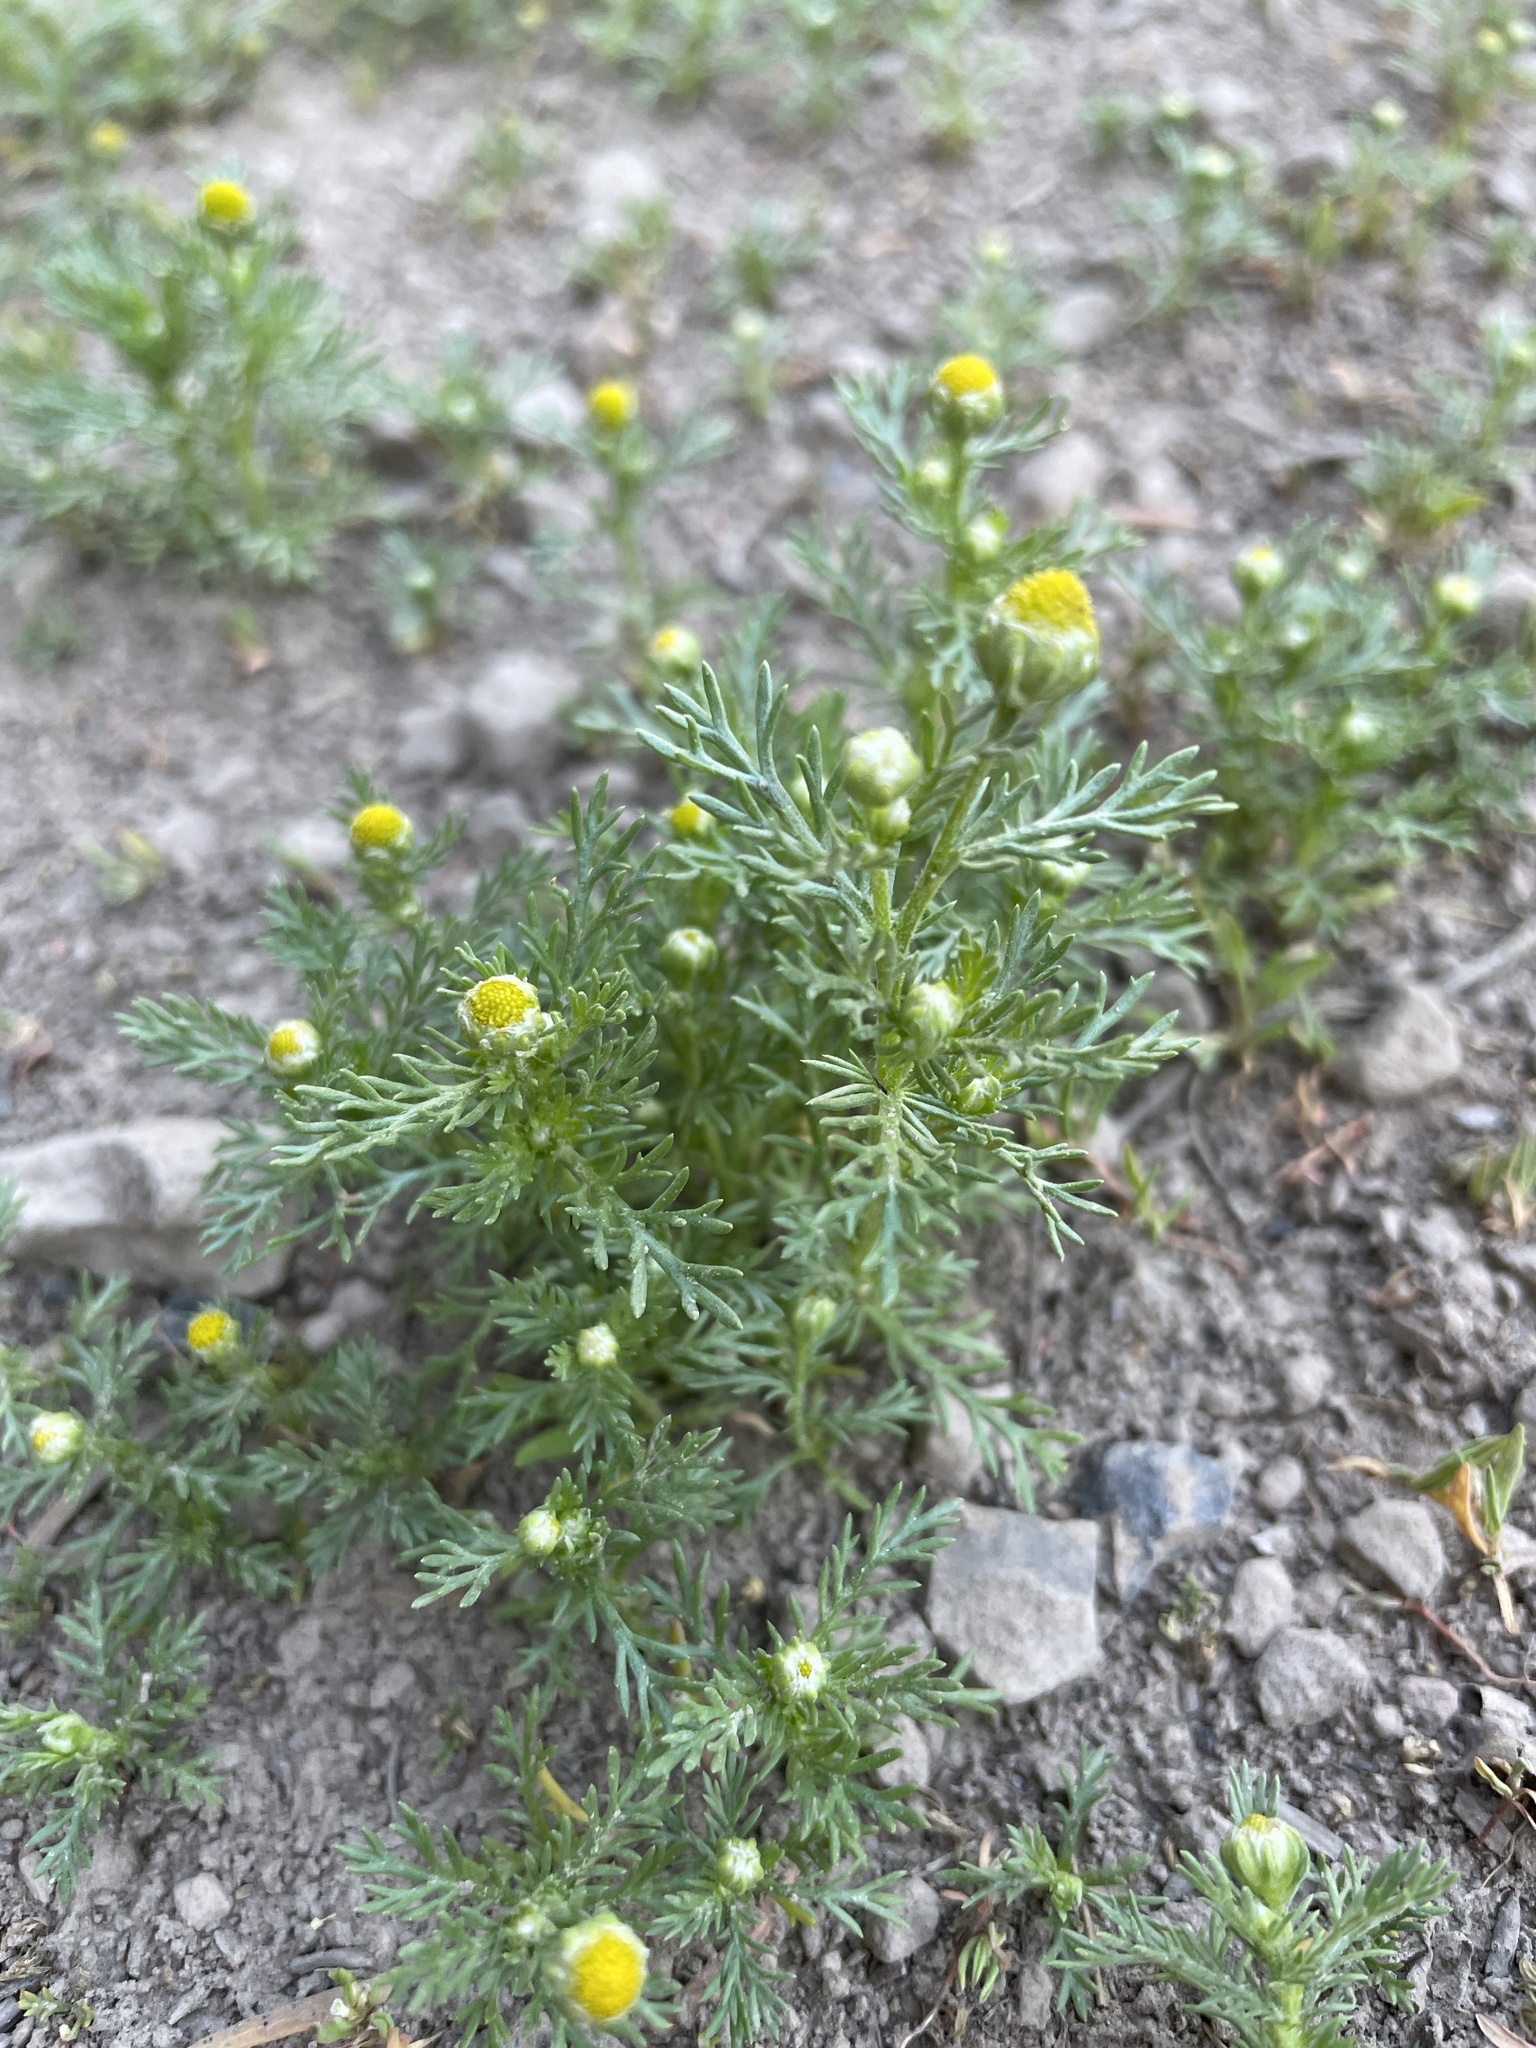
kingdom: Plantae
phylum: Tracheophyta
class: Magnoliopsida
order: Asterales
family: Asteraceae
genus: Matricaria
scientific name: Matricaria discoidea
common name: Disc mayweed
